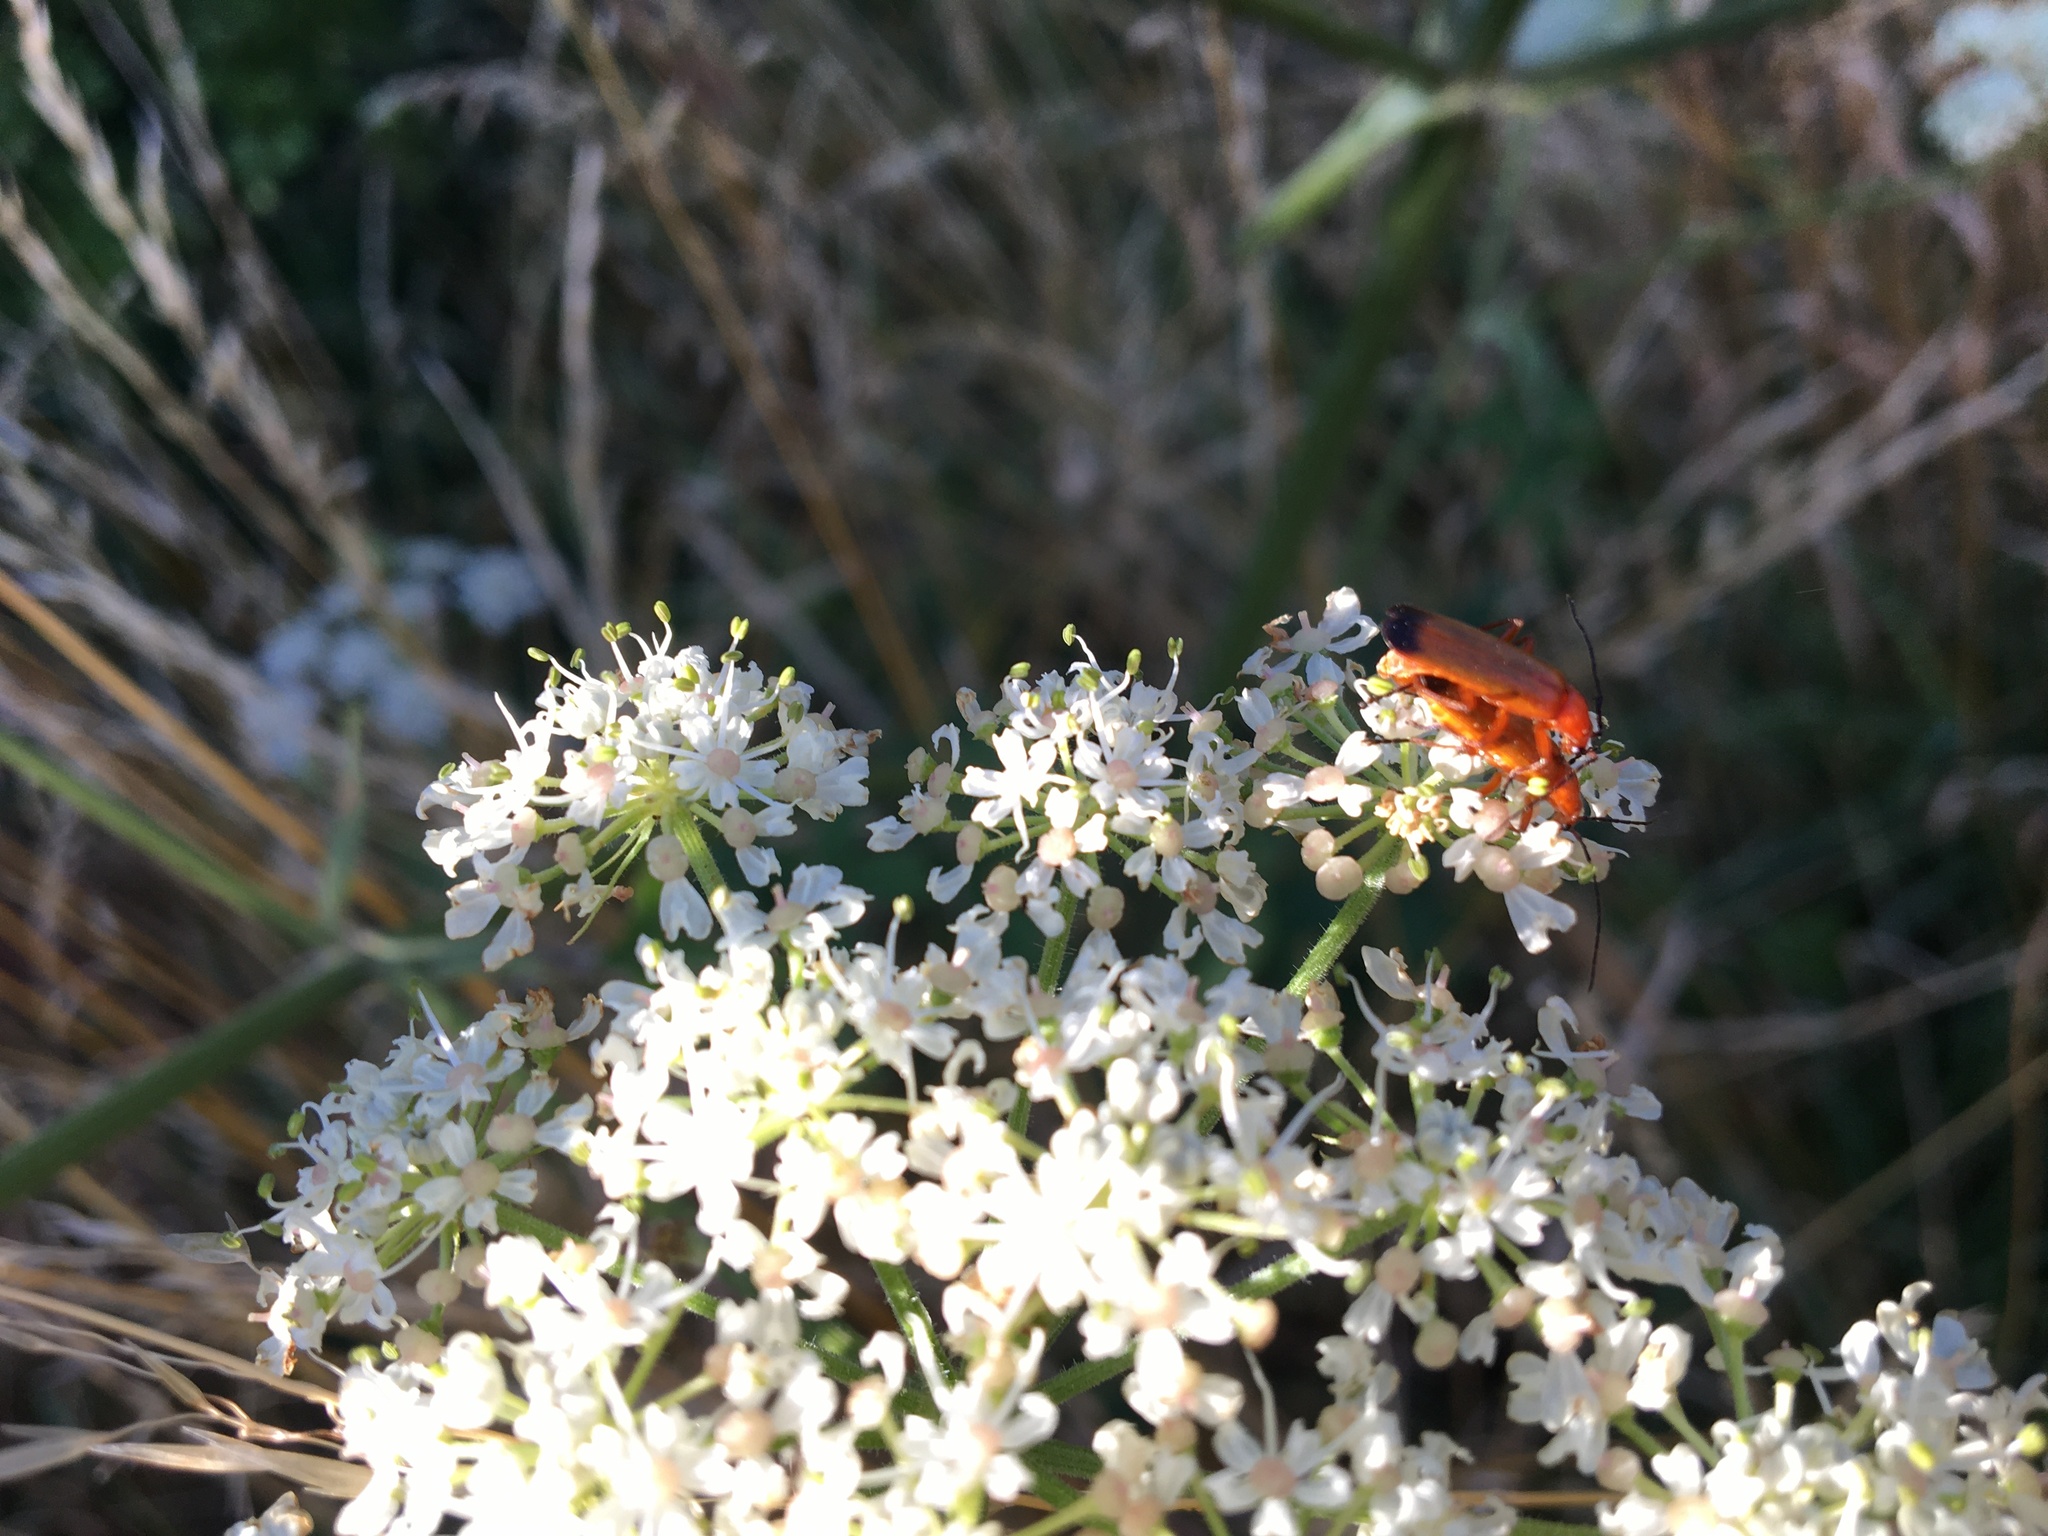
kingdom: Animalia
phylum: Arthropoda
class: Insecta
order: Coleoptera
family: Cantharidae
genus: Rhagonycha
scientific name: Rhagonycha fulva
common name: Common red soldier beetle
